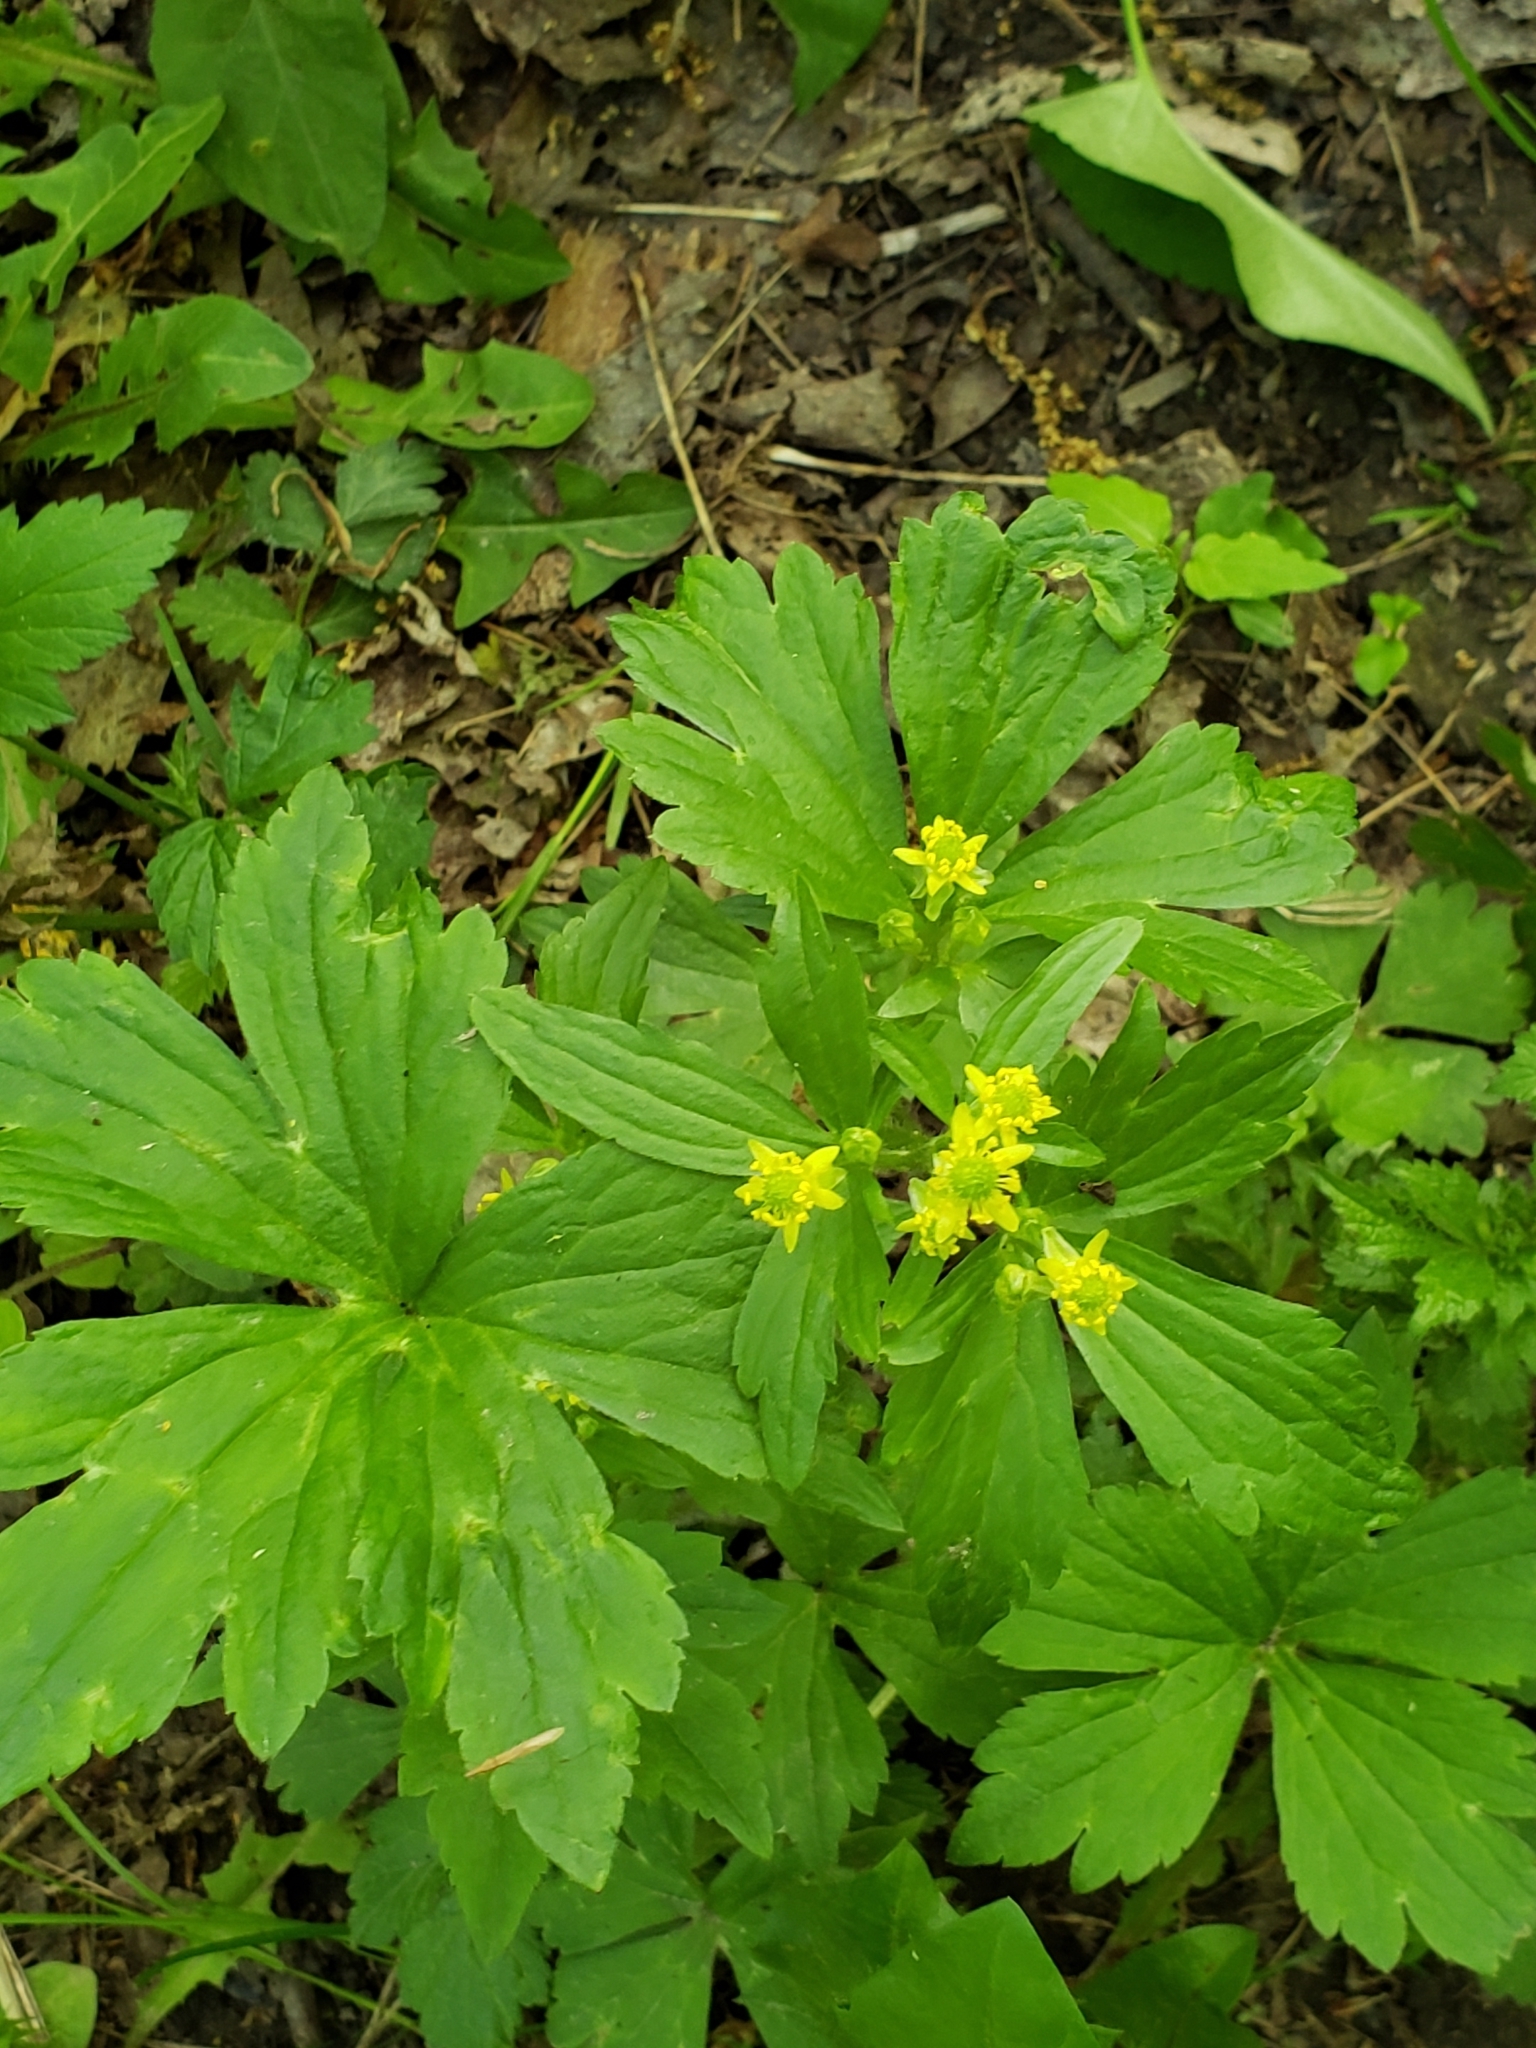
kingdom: Plantae
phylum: Tracheophyta
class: Magnoliopsida
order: Ranunculales
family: Ranunculaceae
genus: Ranunculus
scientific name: Ranunculus recurvatus
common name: Blisterwort
